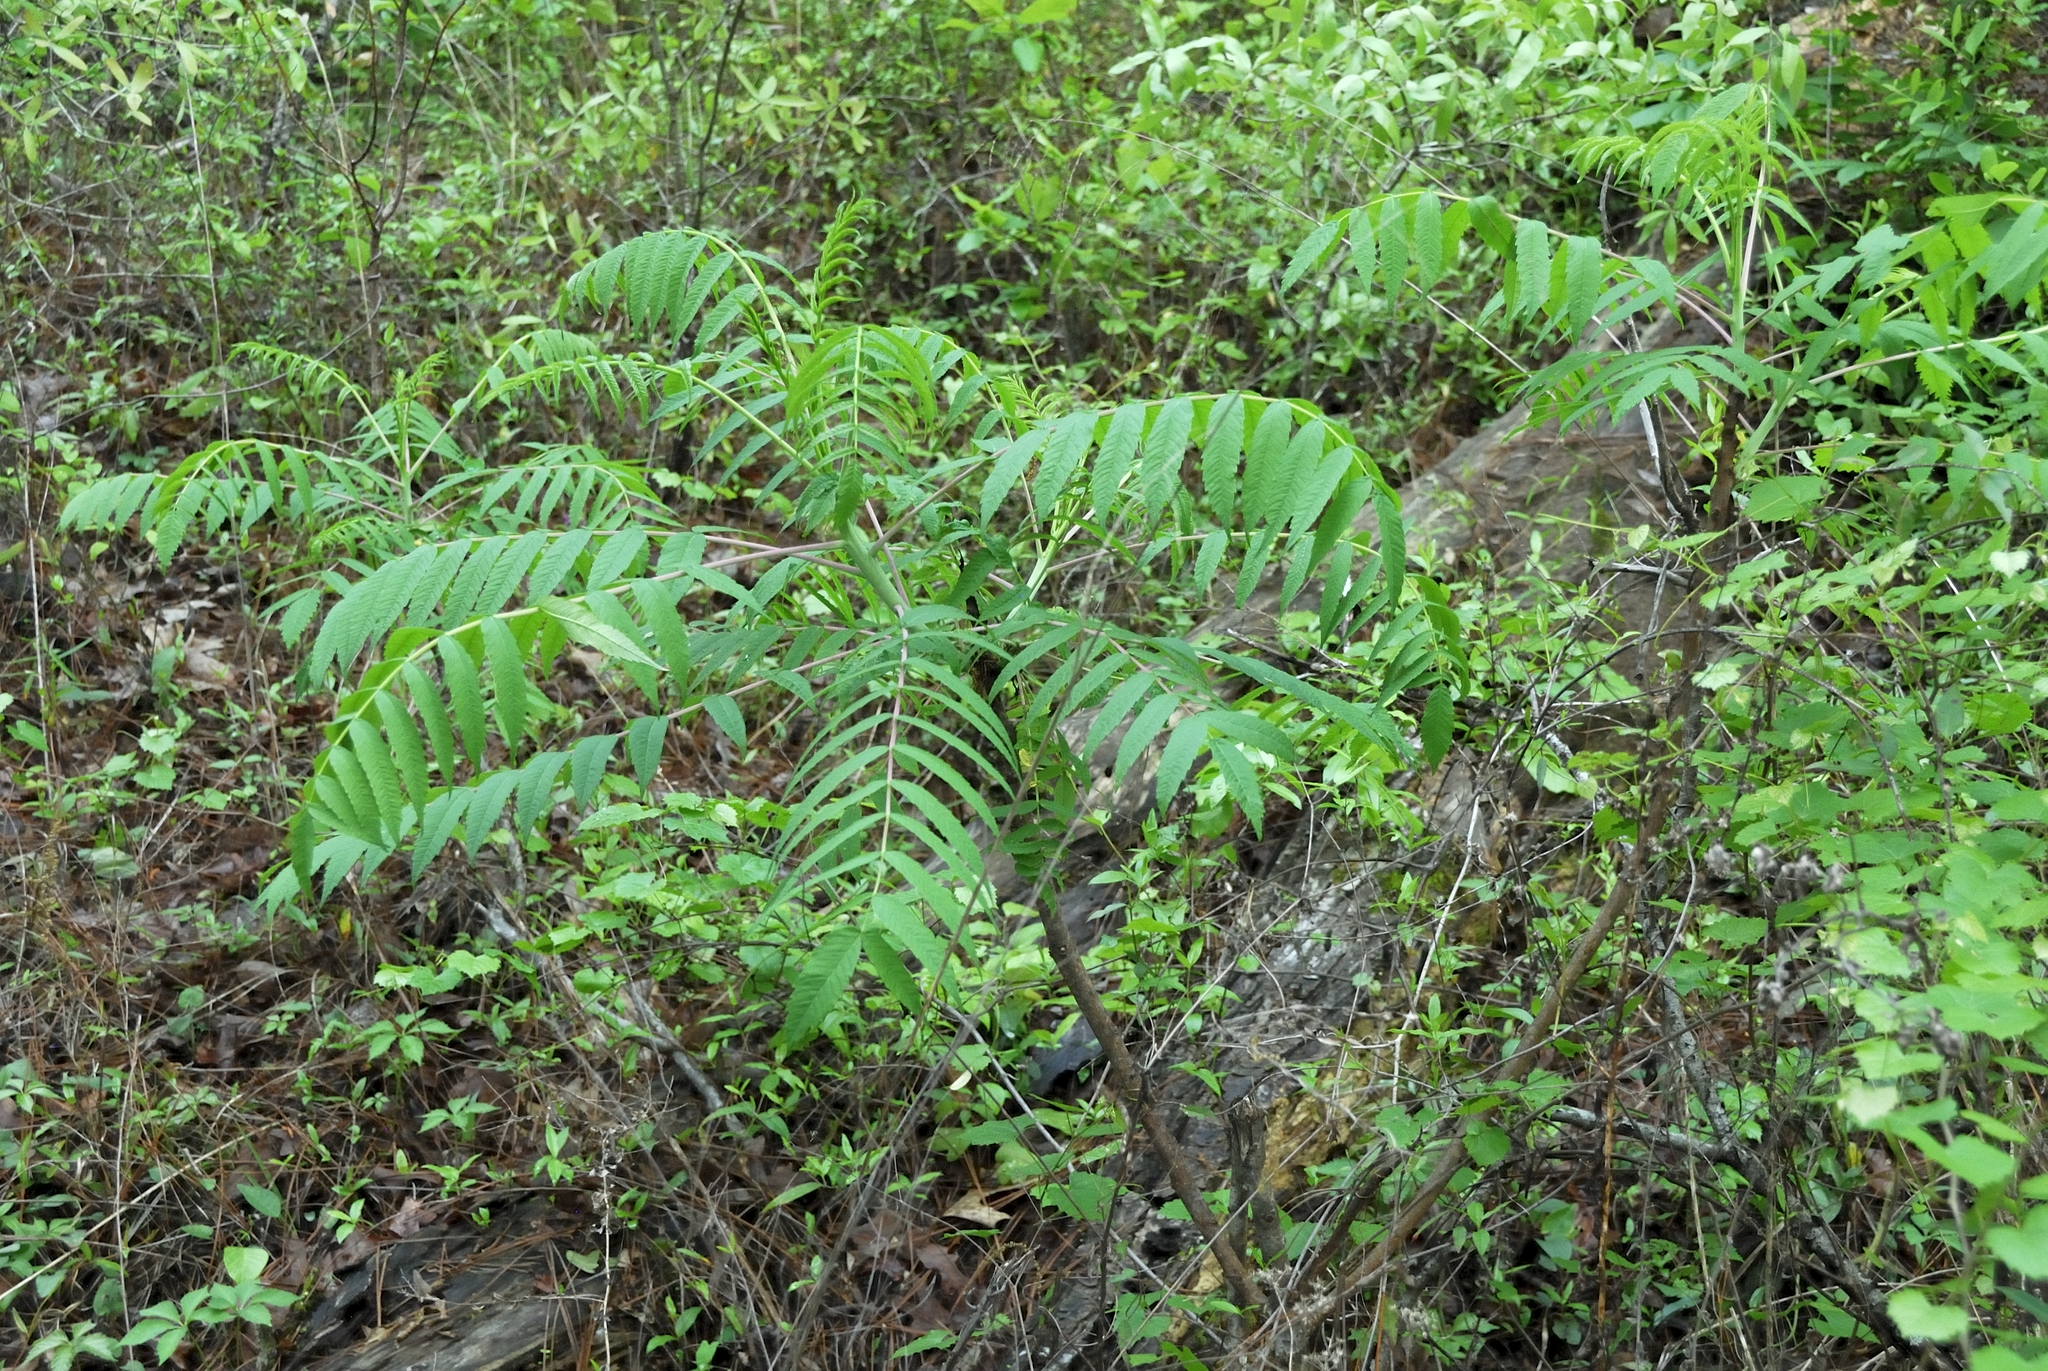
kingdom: Plantae
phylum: Tracheophyta
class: Magnoliopsida
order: Sapindales
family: Anacardiaceae
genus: Rhus
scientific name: Rhus glabra
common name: Scarlet sumac
